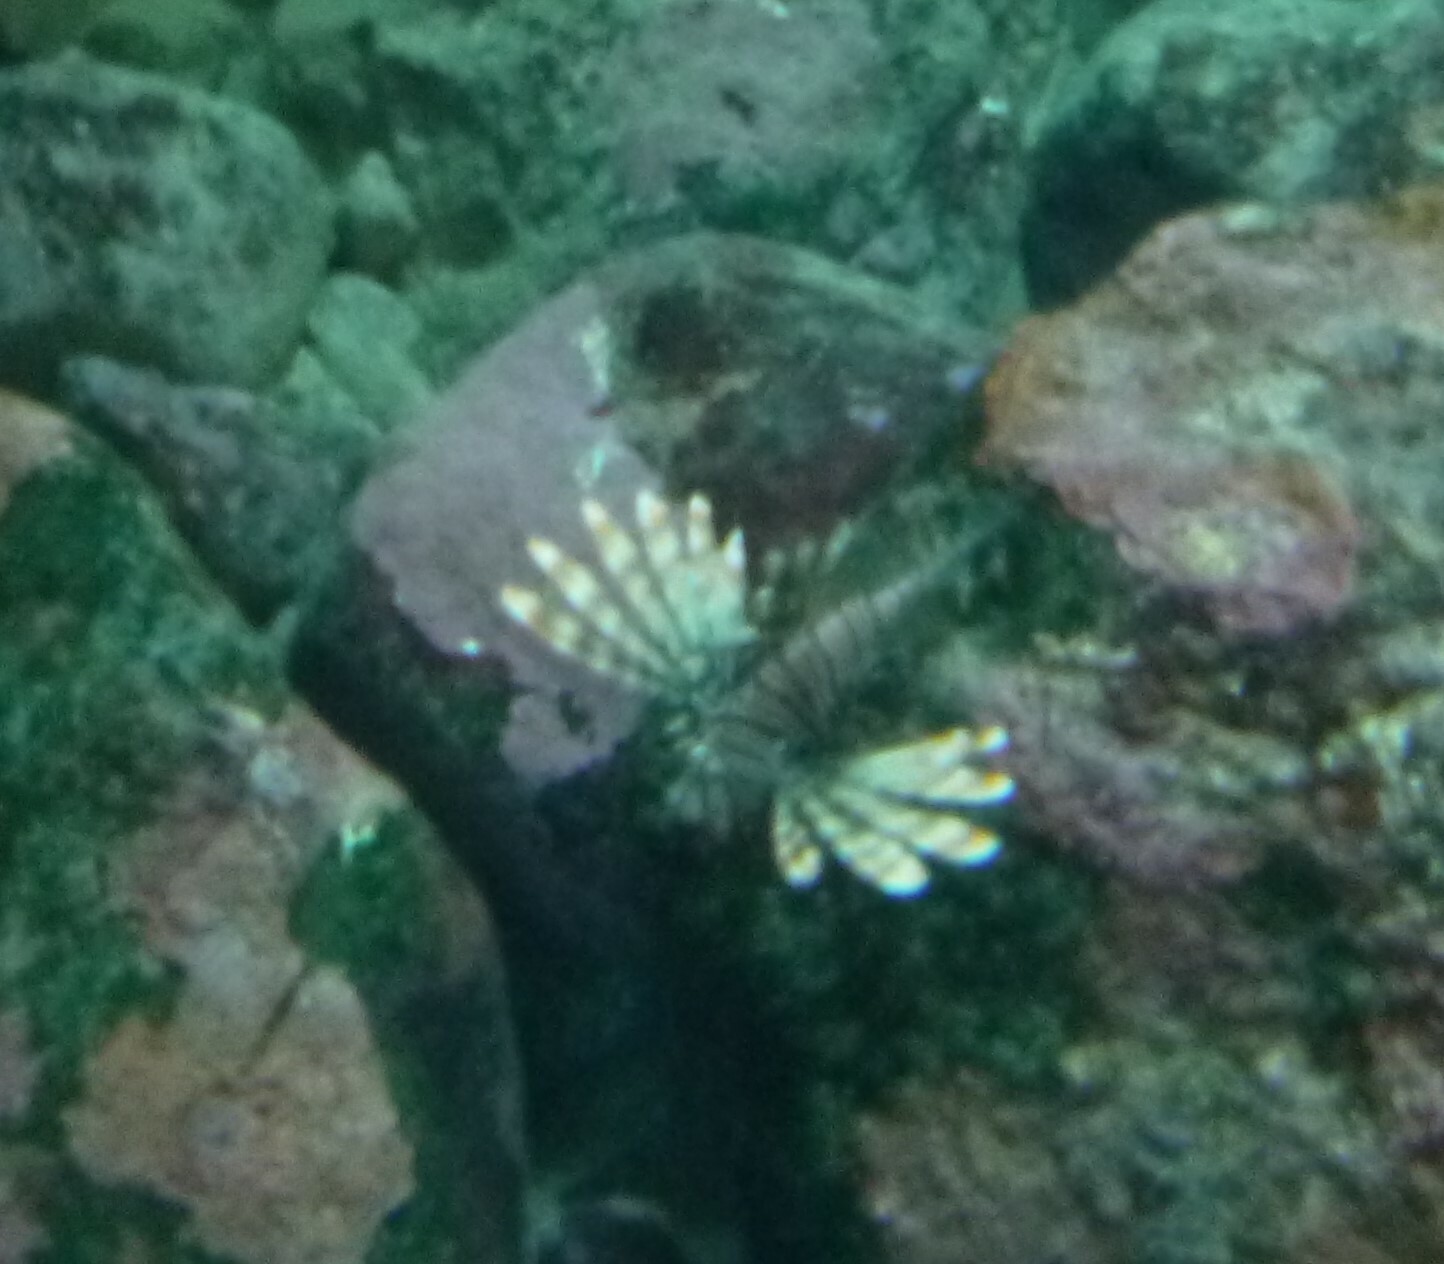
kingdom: Animalia
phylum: Chordata
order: Scorpaeniformes
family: Scorpaenidae
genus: Pterois
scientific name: Pterois miles
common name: Devil firefish
